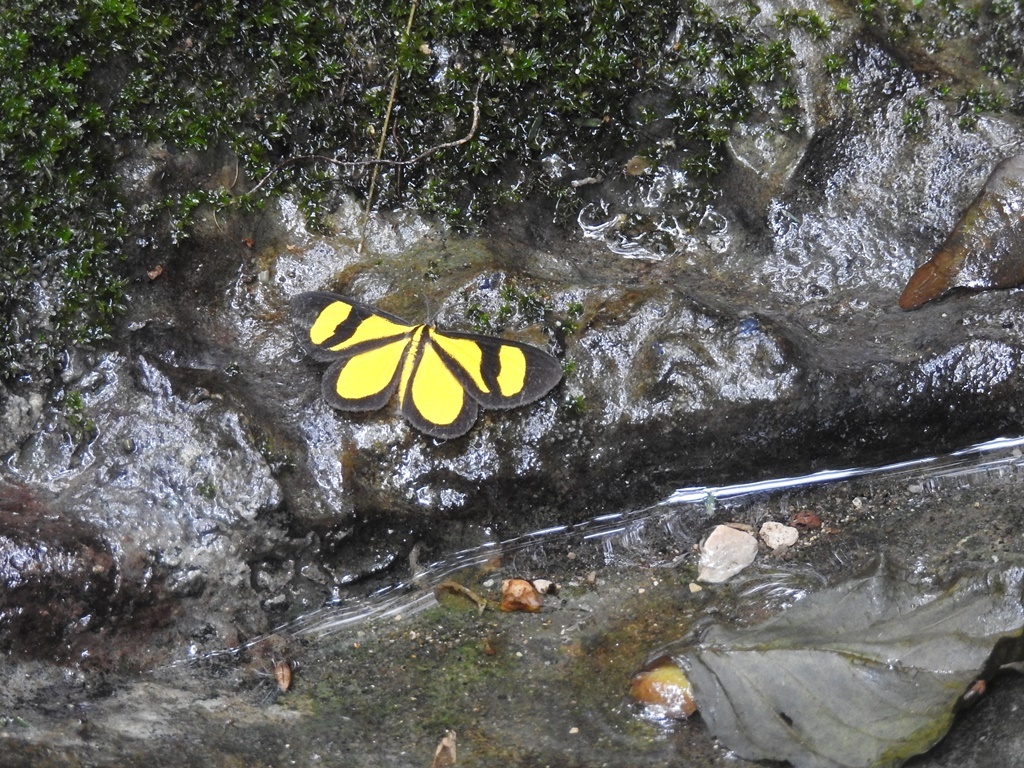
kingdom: Animalia
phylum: Arthropoda
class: Insecta
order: Lepidoptera
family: Geometridae
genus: Smicropus
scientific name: Smicropus laeta
